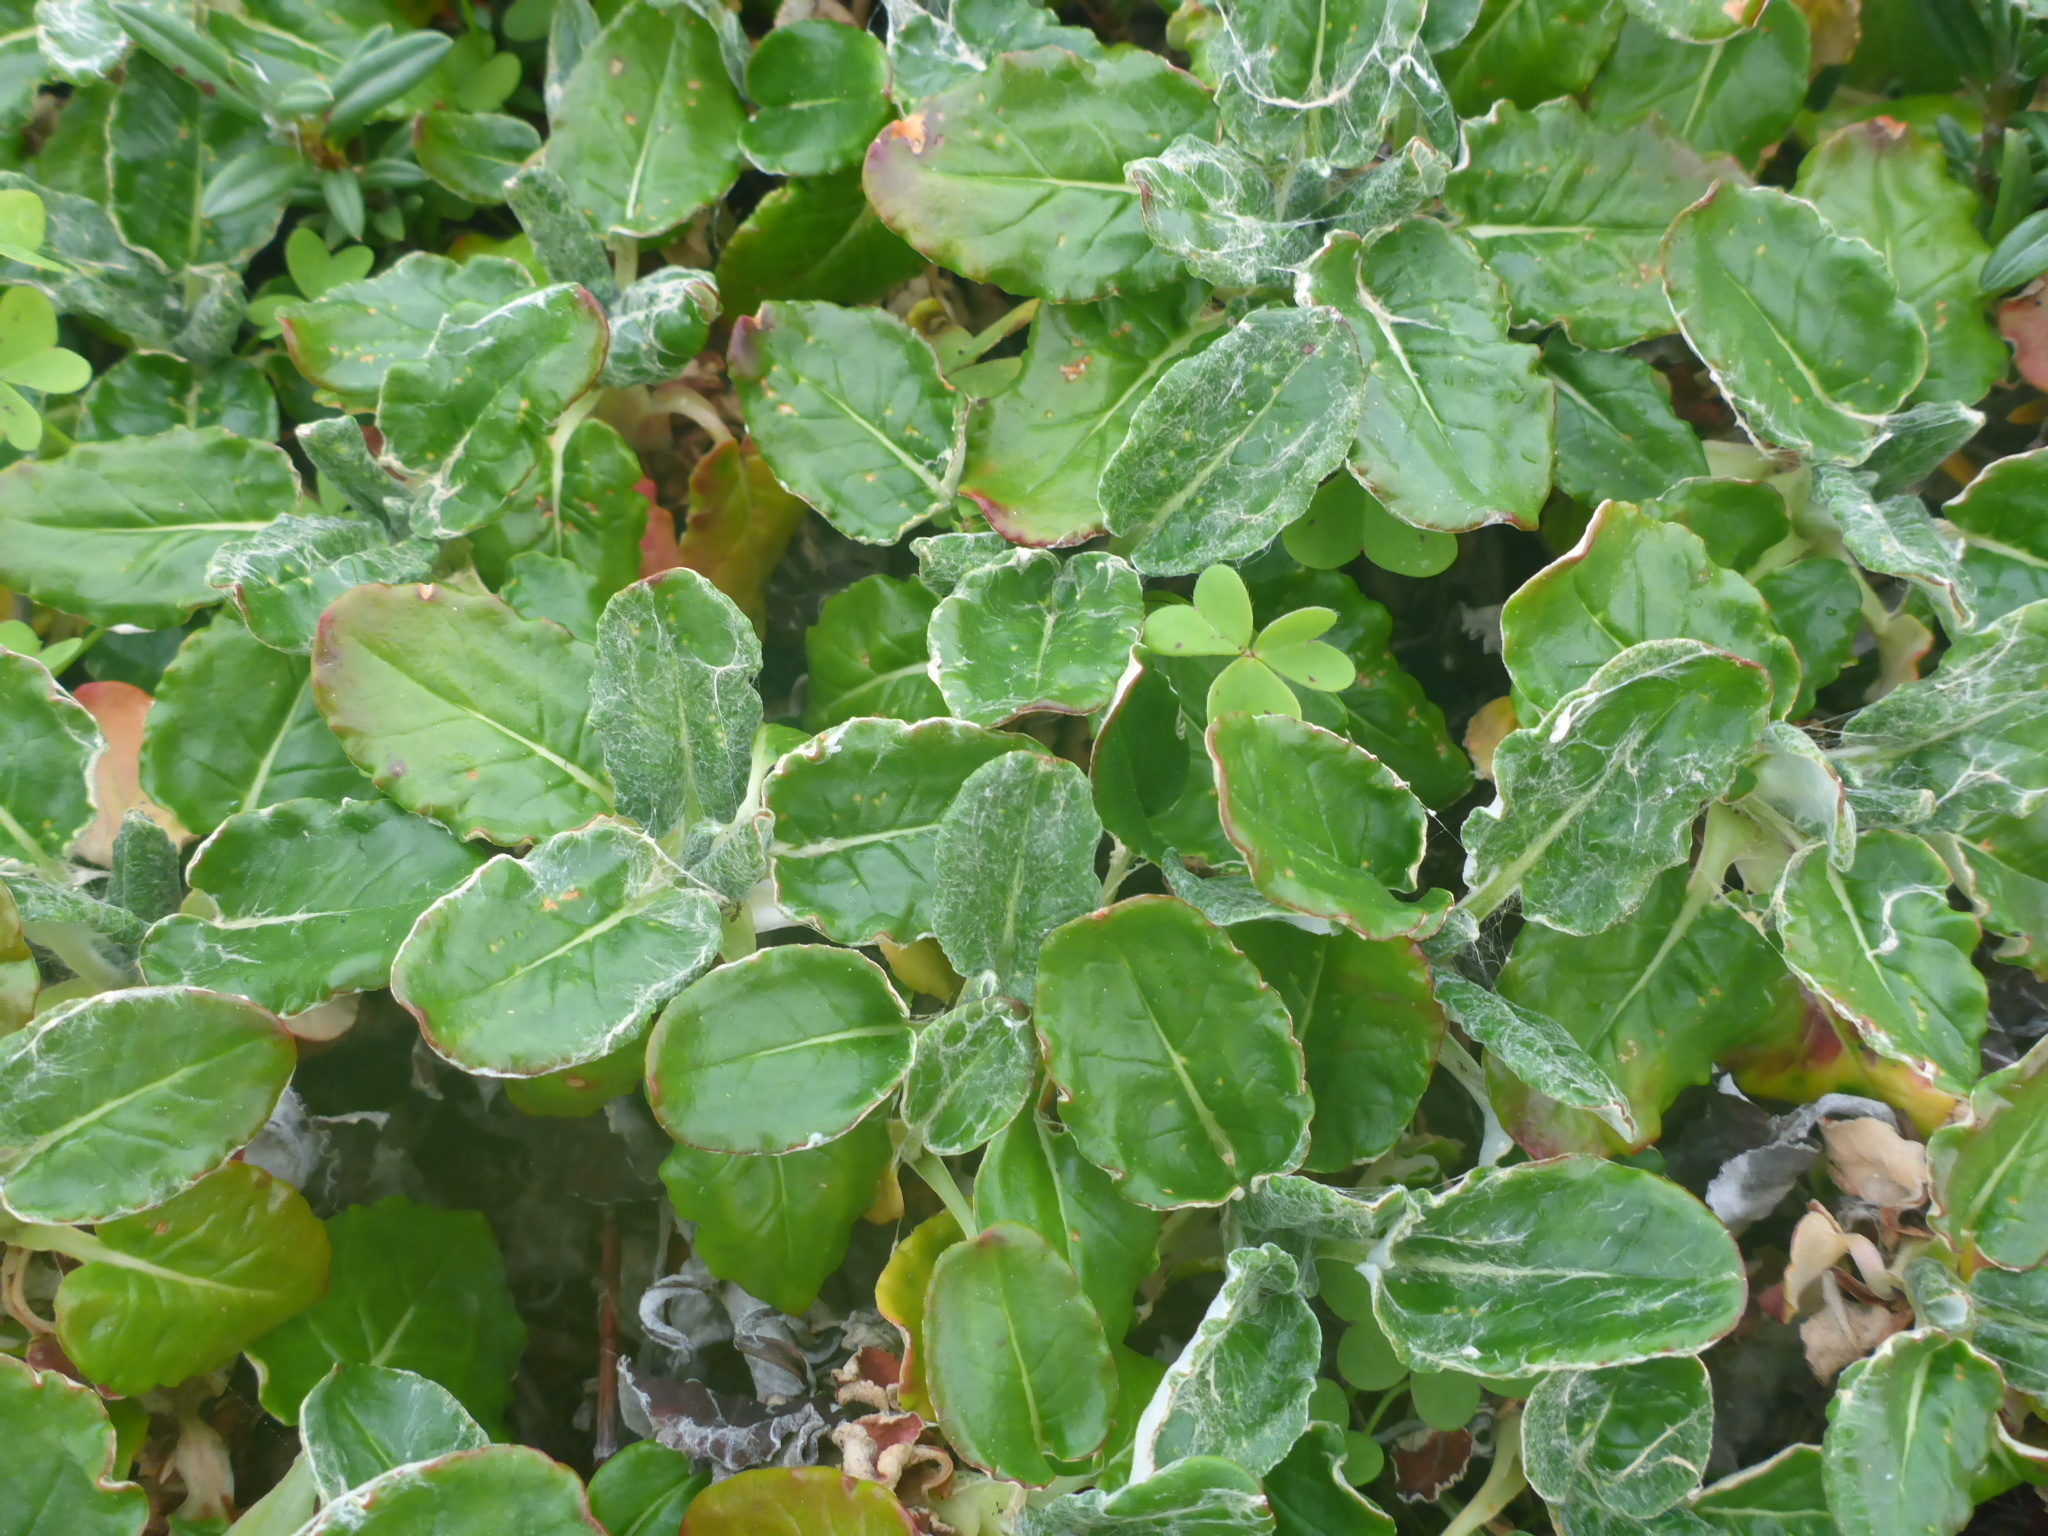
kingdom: Plantae
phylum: Tracheophyta
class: Magnoliopsida
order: Caryophyllales
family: Polygonaceae
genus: Eriogonum
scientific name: Eriogonum latifolium
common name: Seaside wild buckwheat
